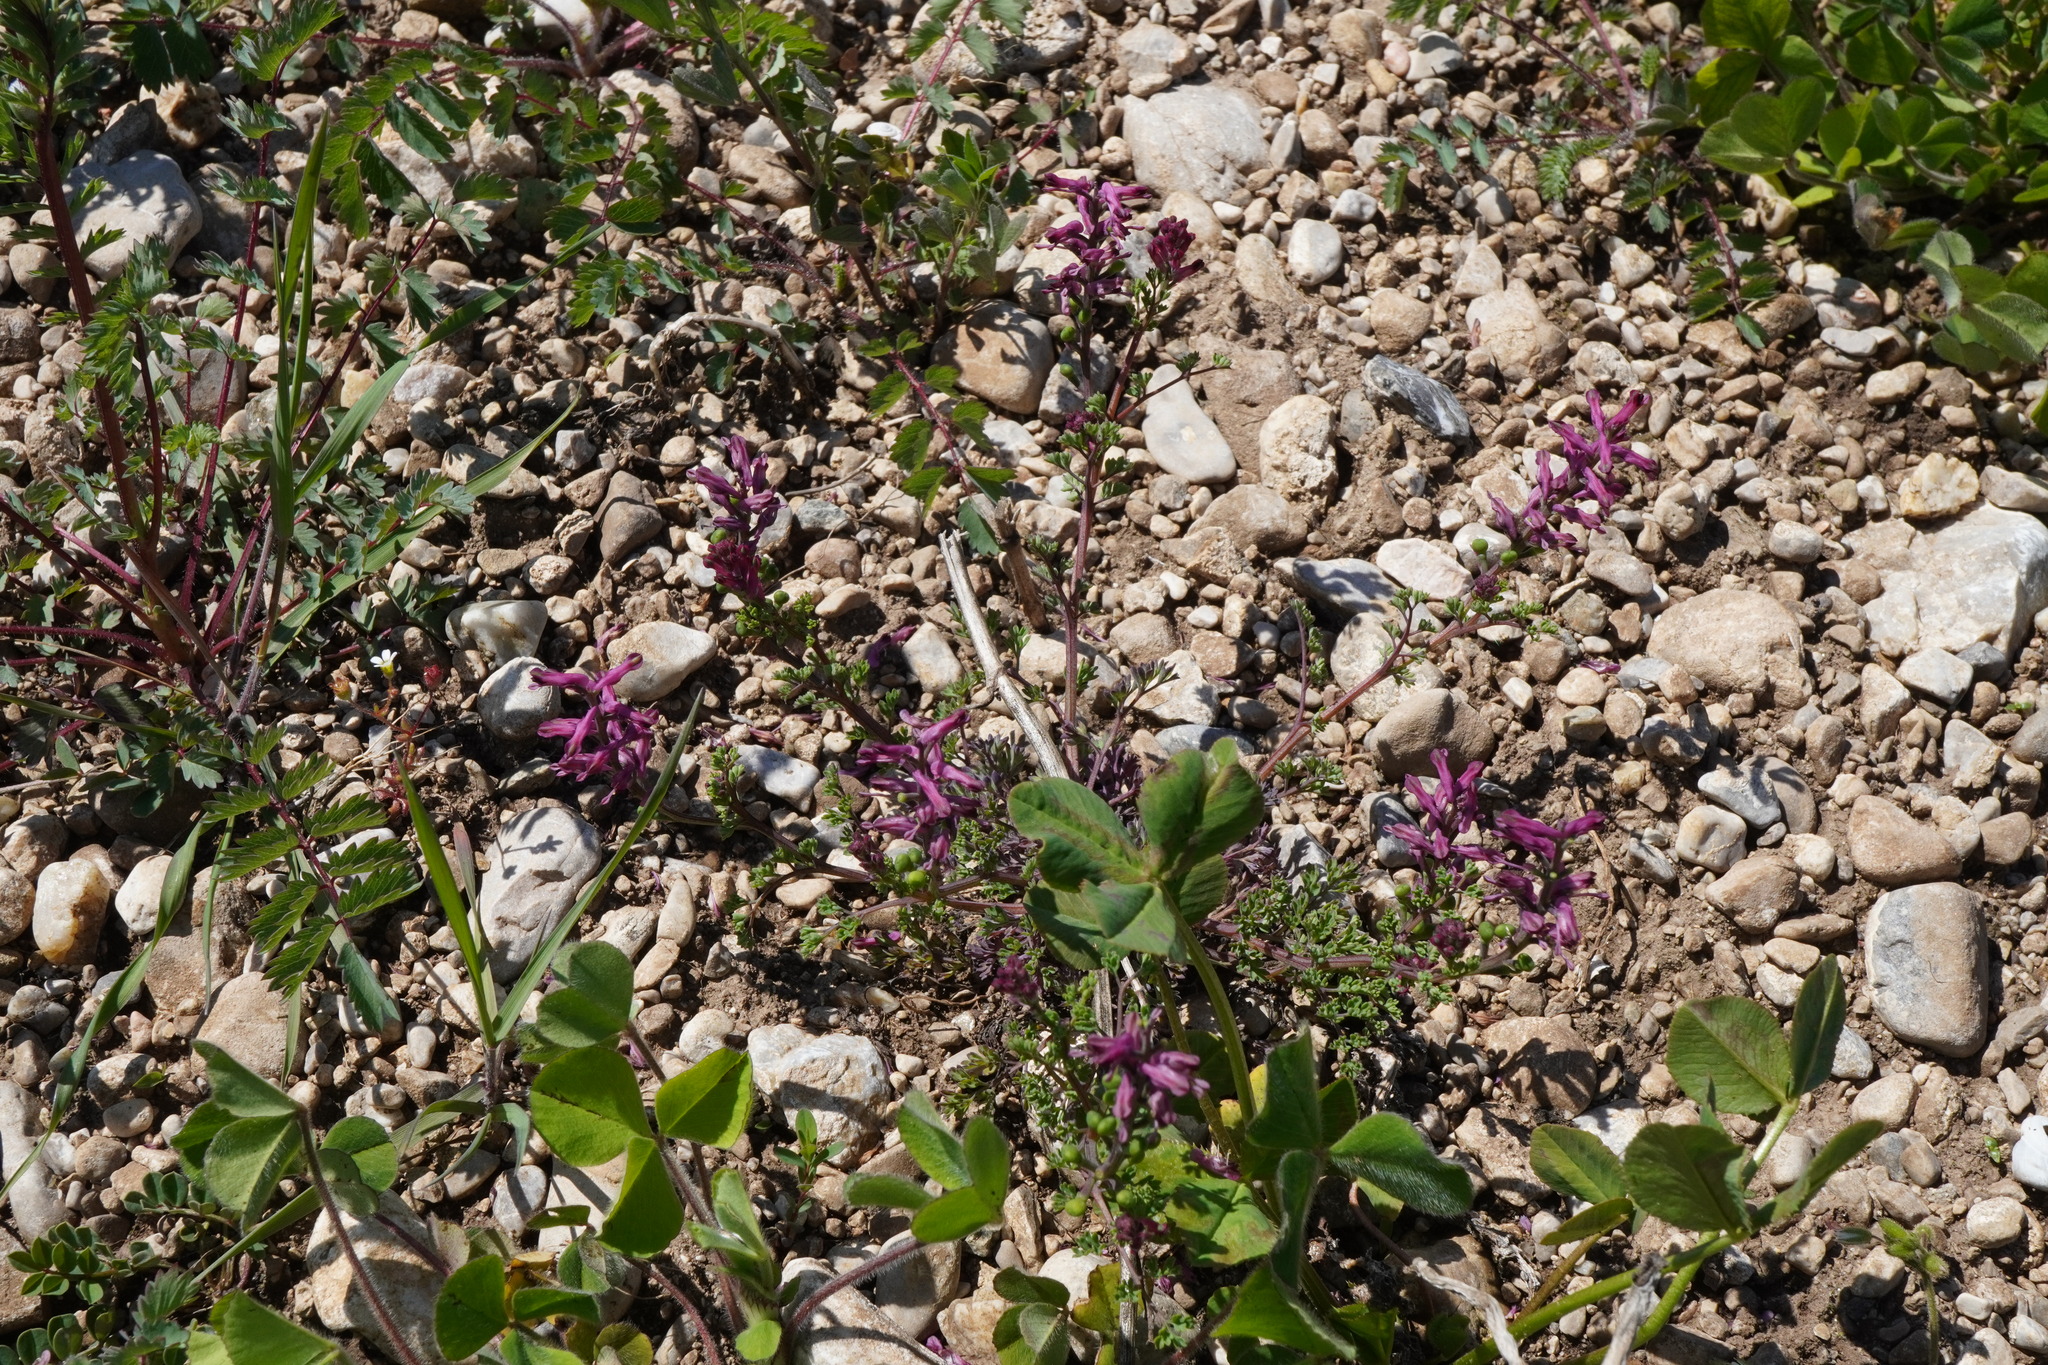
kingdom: Plantae
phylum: Tracheophyta
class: Magnoliopsida
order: Ranunculales
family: Papaveraceae
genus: Fumaria
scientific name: Fumaria officinalis
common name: Common fumitory
